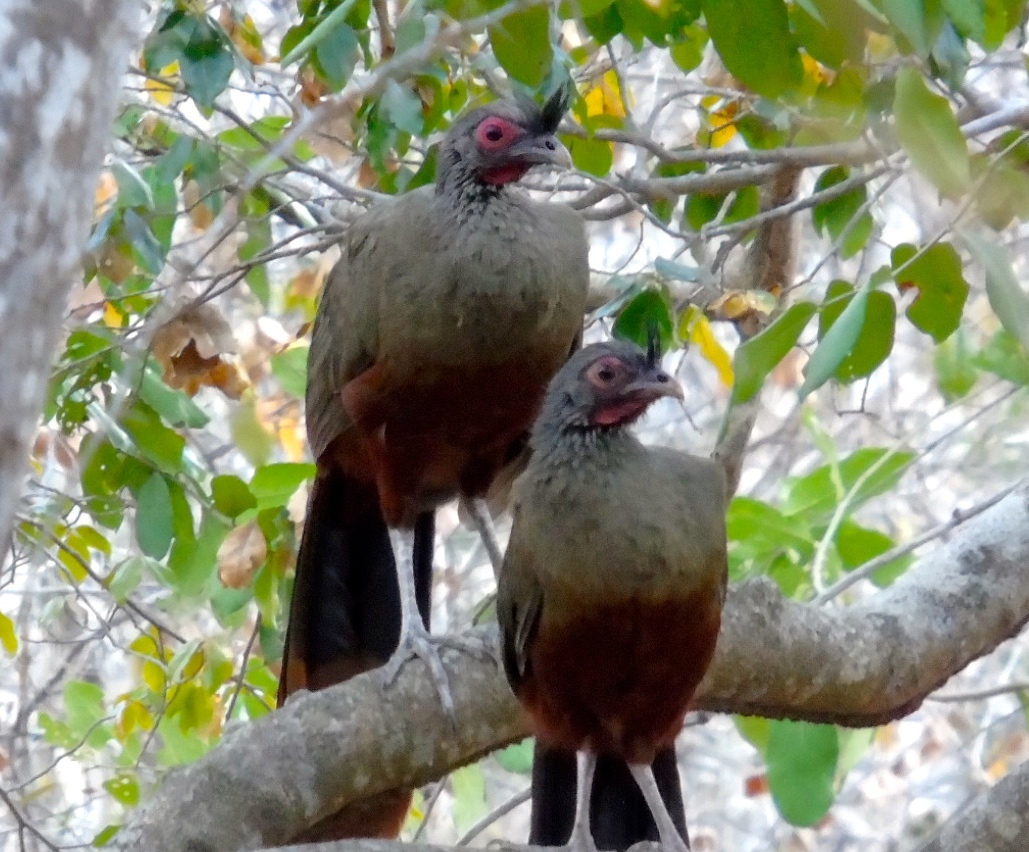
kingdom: Animalia
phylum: Chordata
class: Aves
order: Galliformes
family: Cracidae
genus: Ortalis
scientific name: Ortalis wagleri
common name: Rufous-bellied chachalaca
